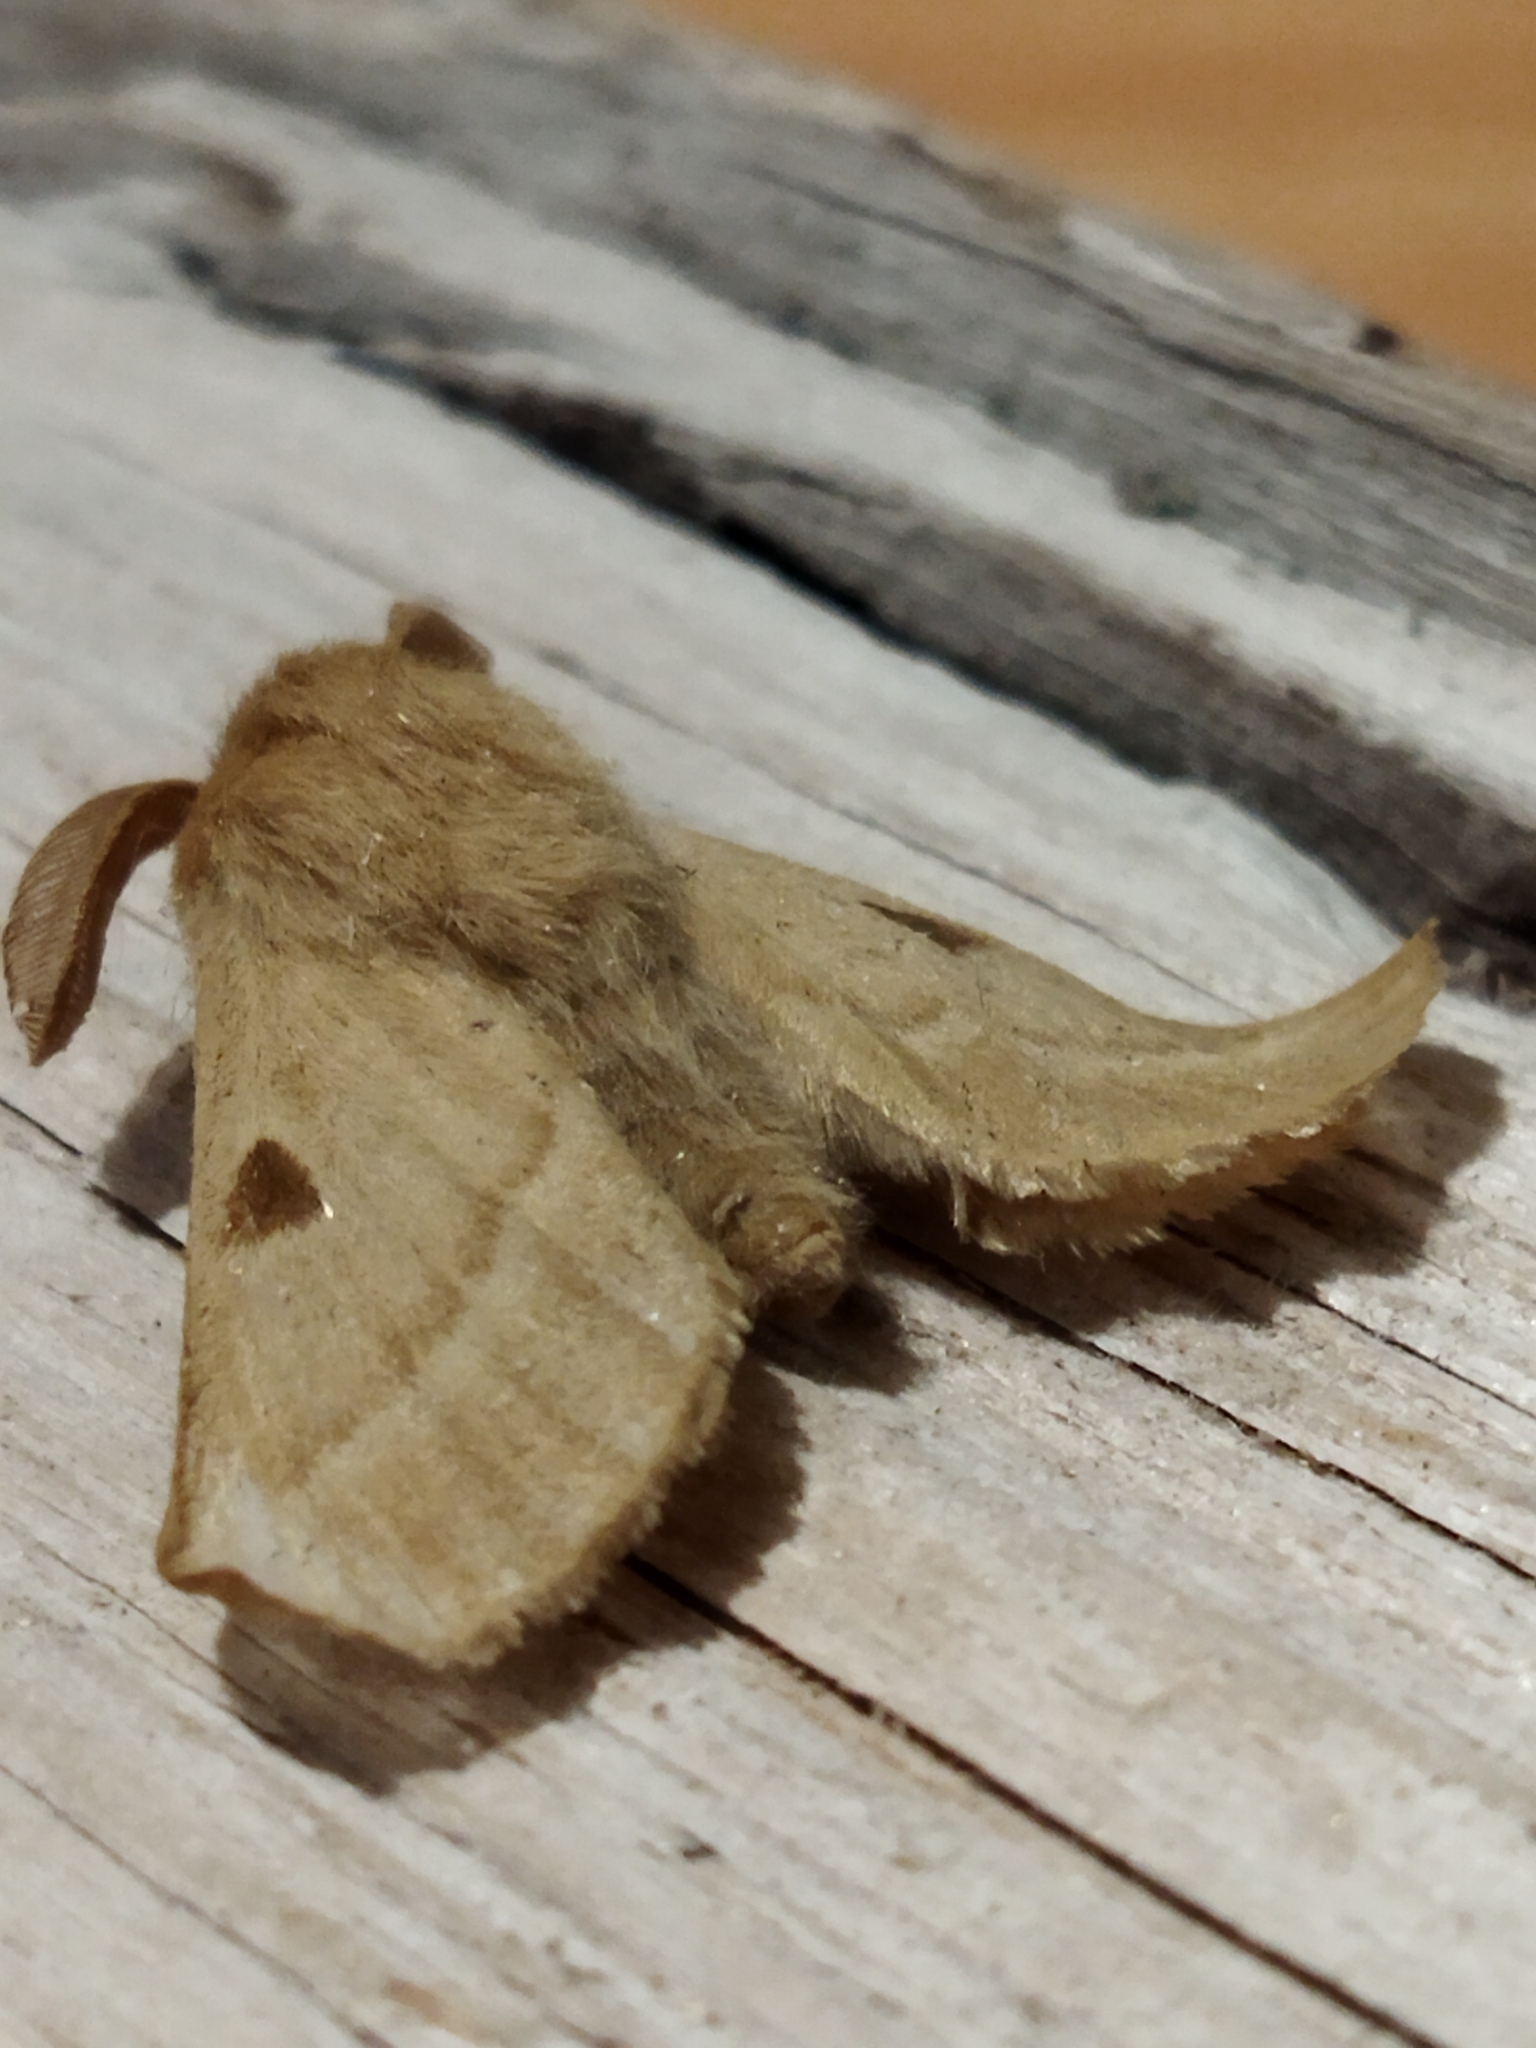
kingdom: Animalia
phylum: Arthropoda
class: Insecta
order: Lepidoptera
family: Brahmaeidae
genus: Lemonia
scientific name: Lemonia balcanica
